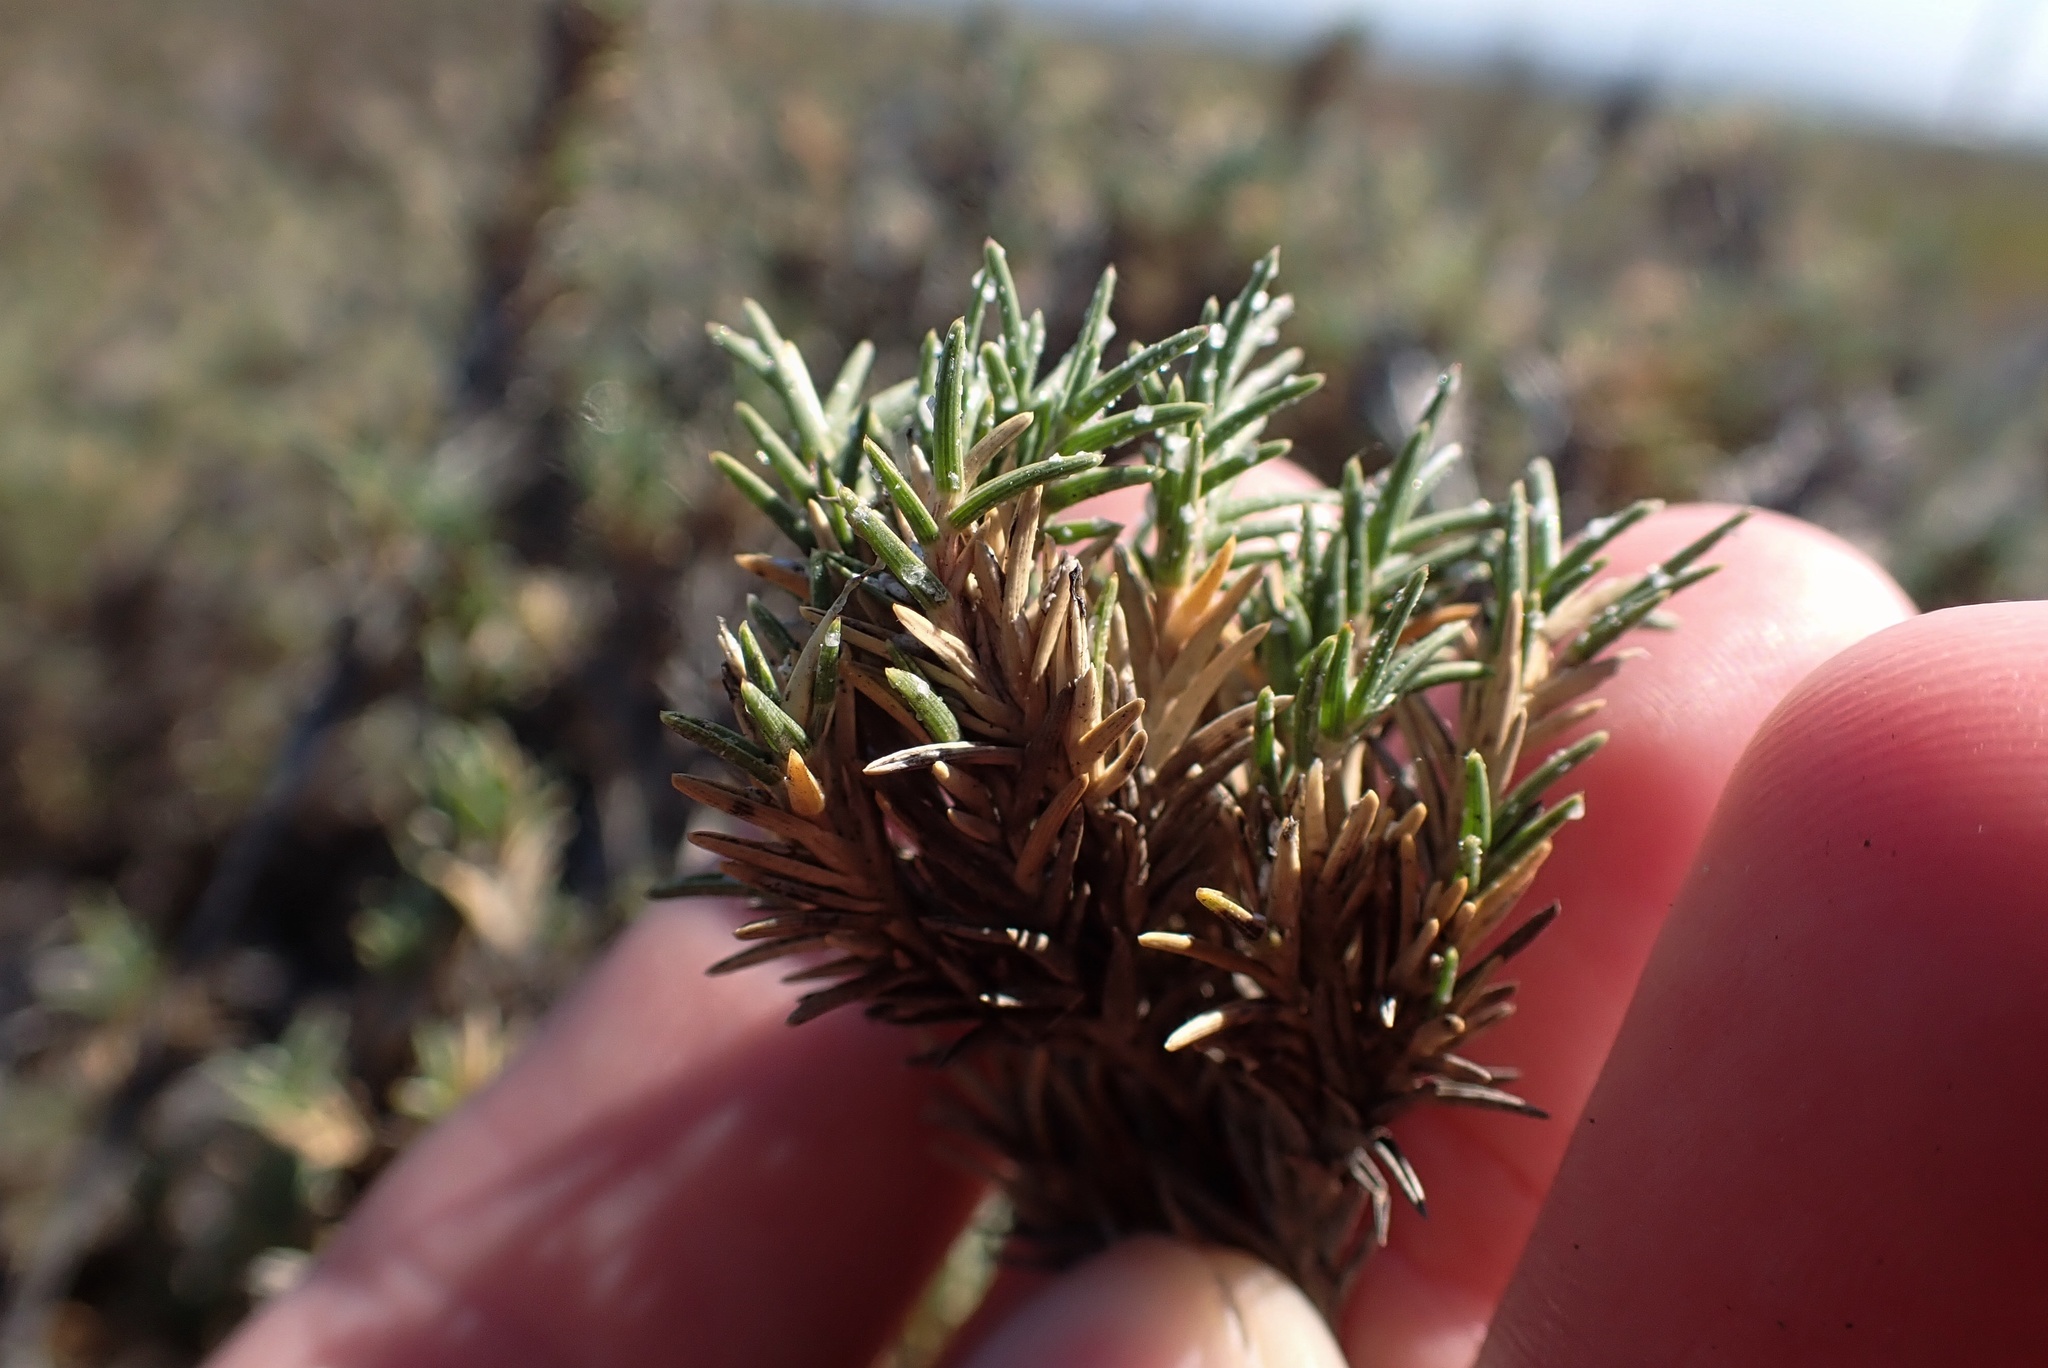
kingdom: Plantae
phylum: Tracheophyta
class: Liliopsida
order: Poales
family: Poaceae
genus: Distichlis
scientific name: Distichlis littoralis
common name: Shore grass
